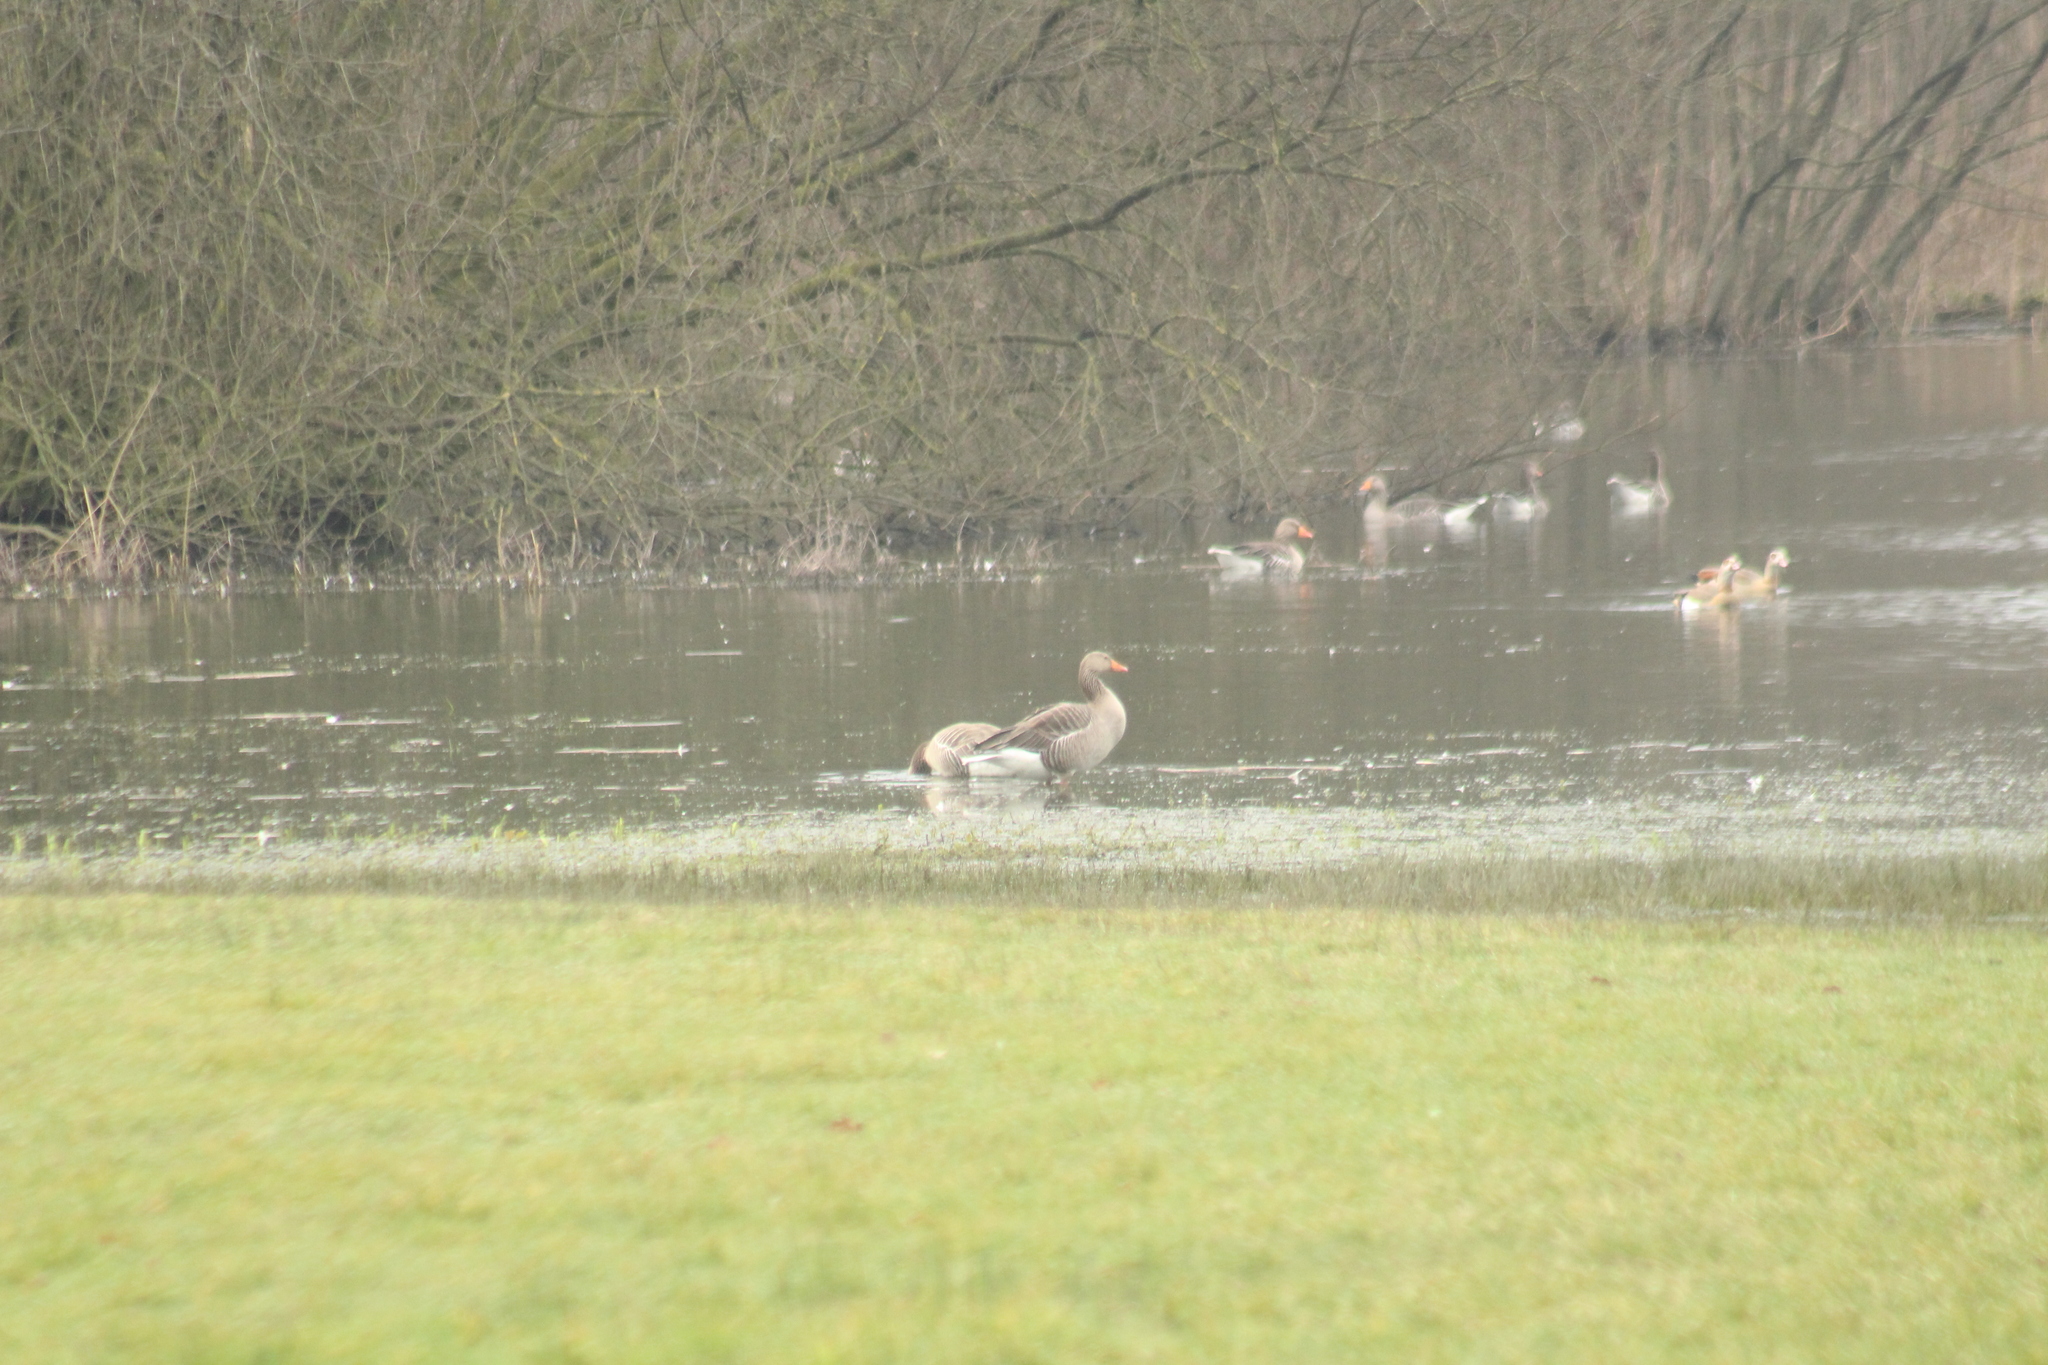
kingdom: Animalia
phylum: Chordata
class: Aves
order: Anseriformes
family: Anatidae
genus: Anser
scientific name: Anser anser
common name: Greylag goose
